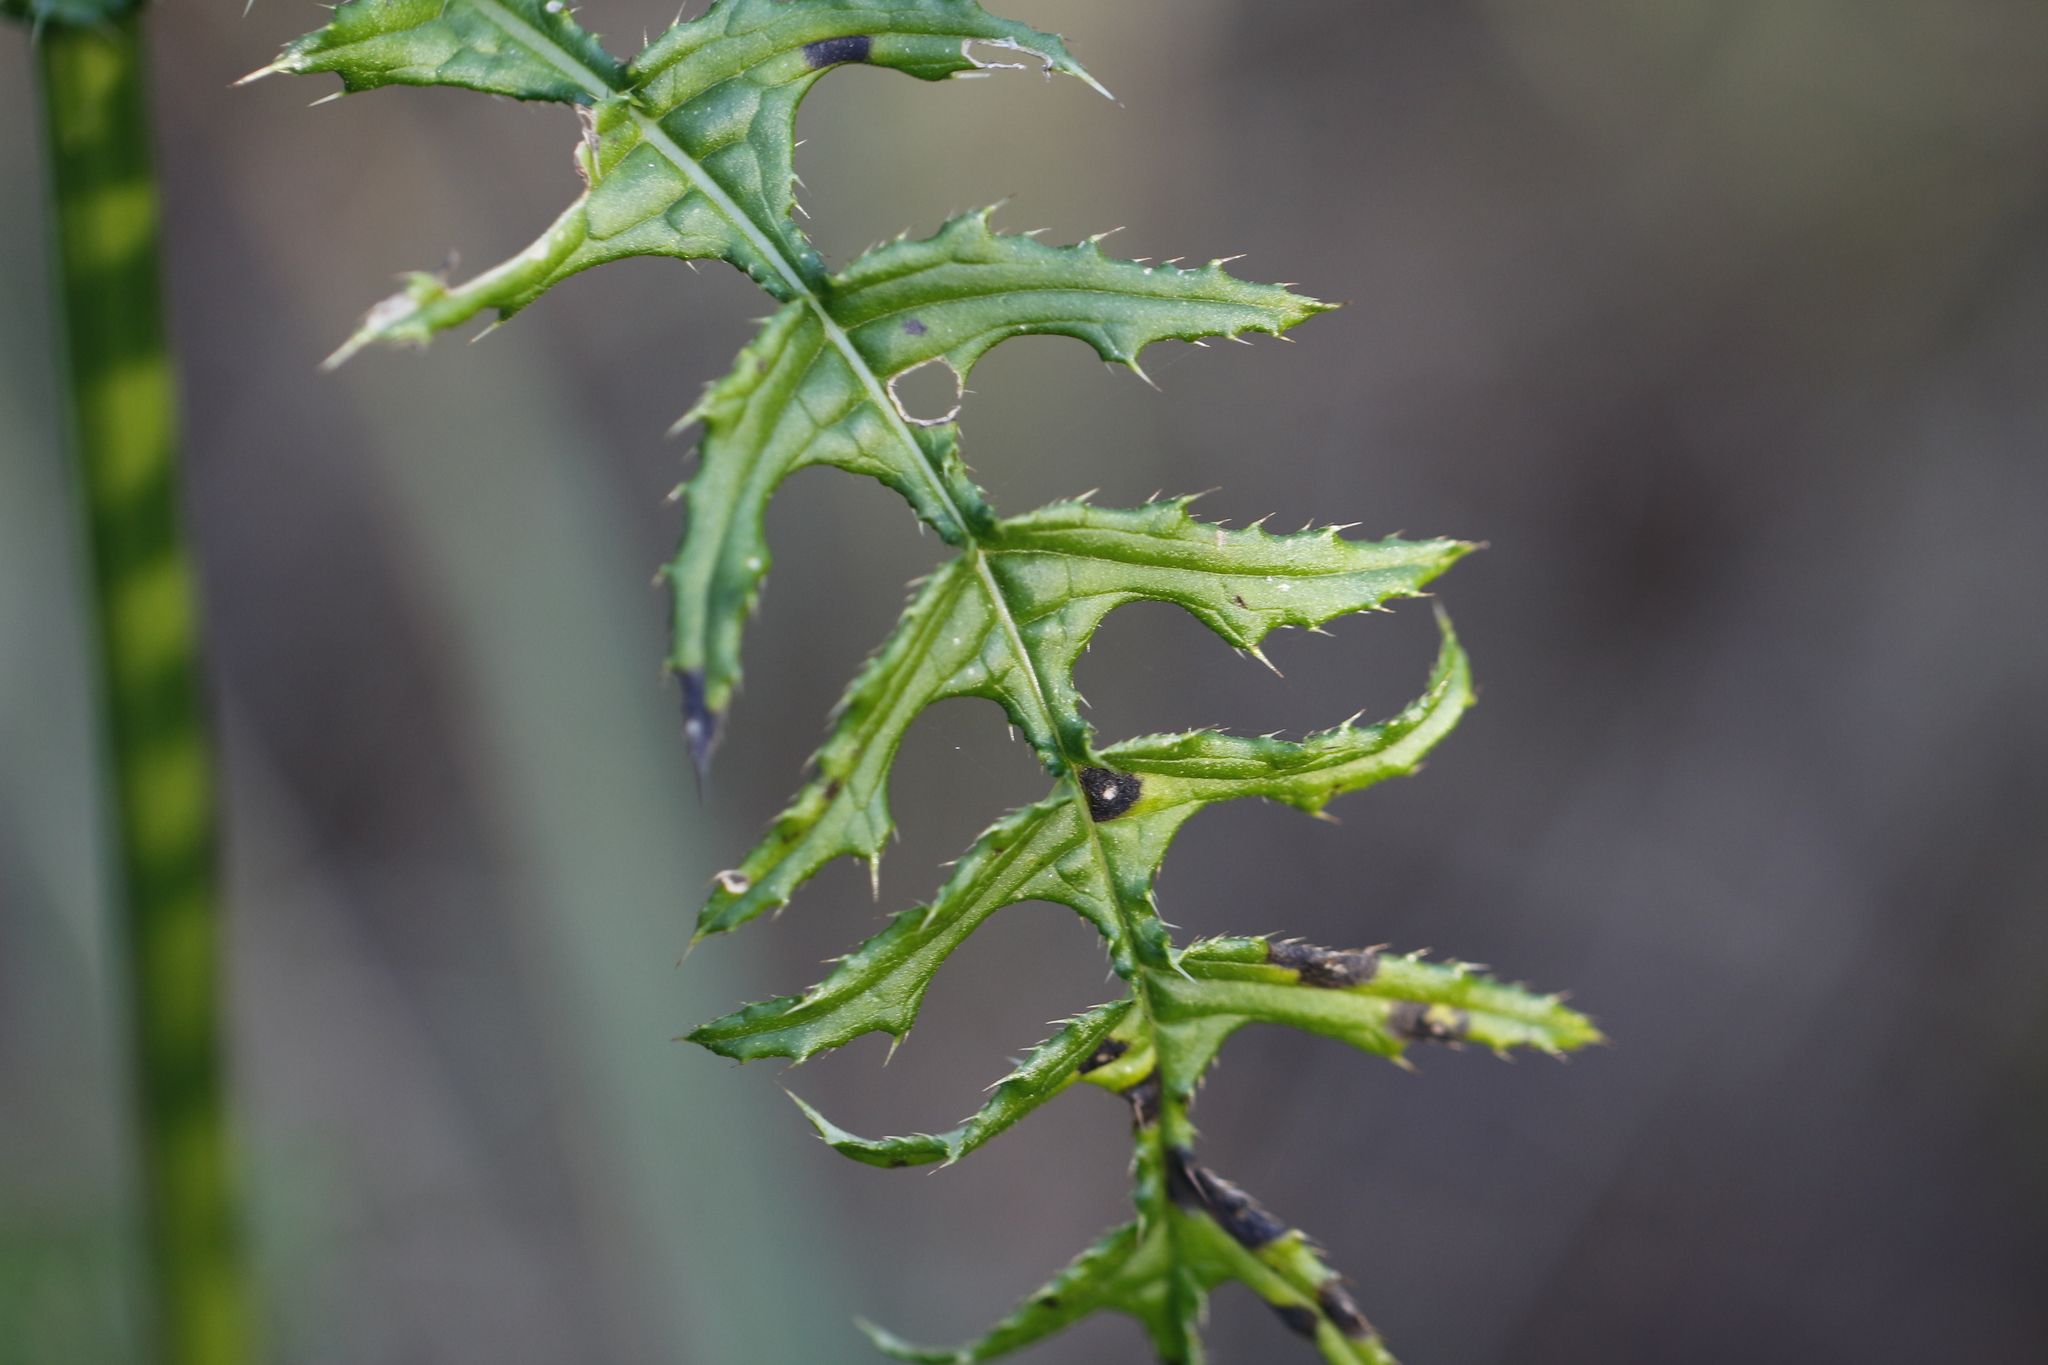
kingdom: Plantae
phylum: Tracheophyta
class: Magnoliopsida
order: Asterales
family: Asteraceae
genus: Cirsium
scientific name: Cirsium erisithales
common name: Yellow thistle
